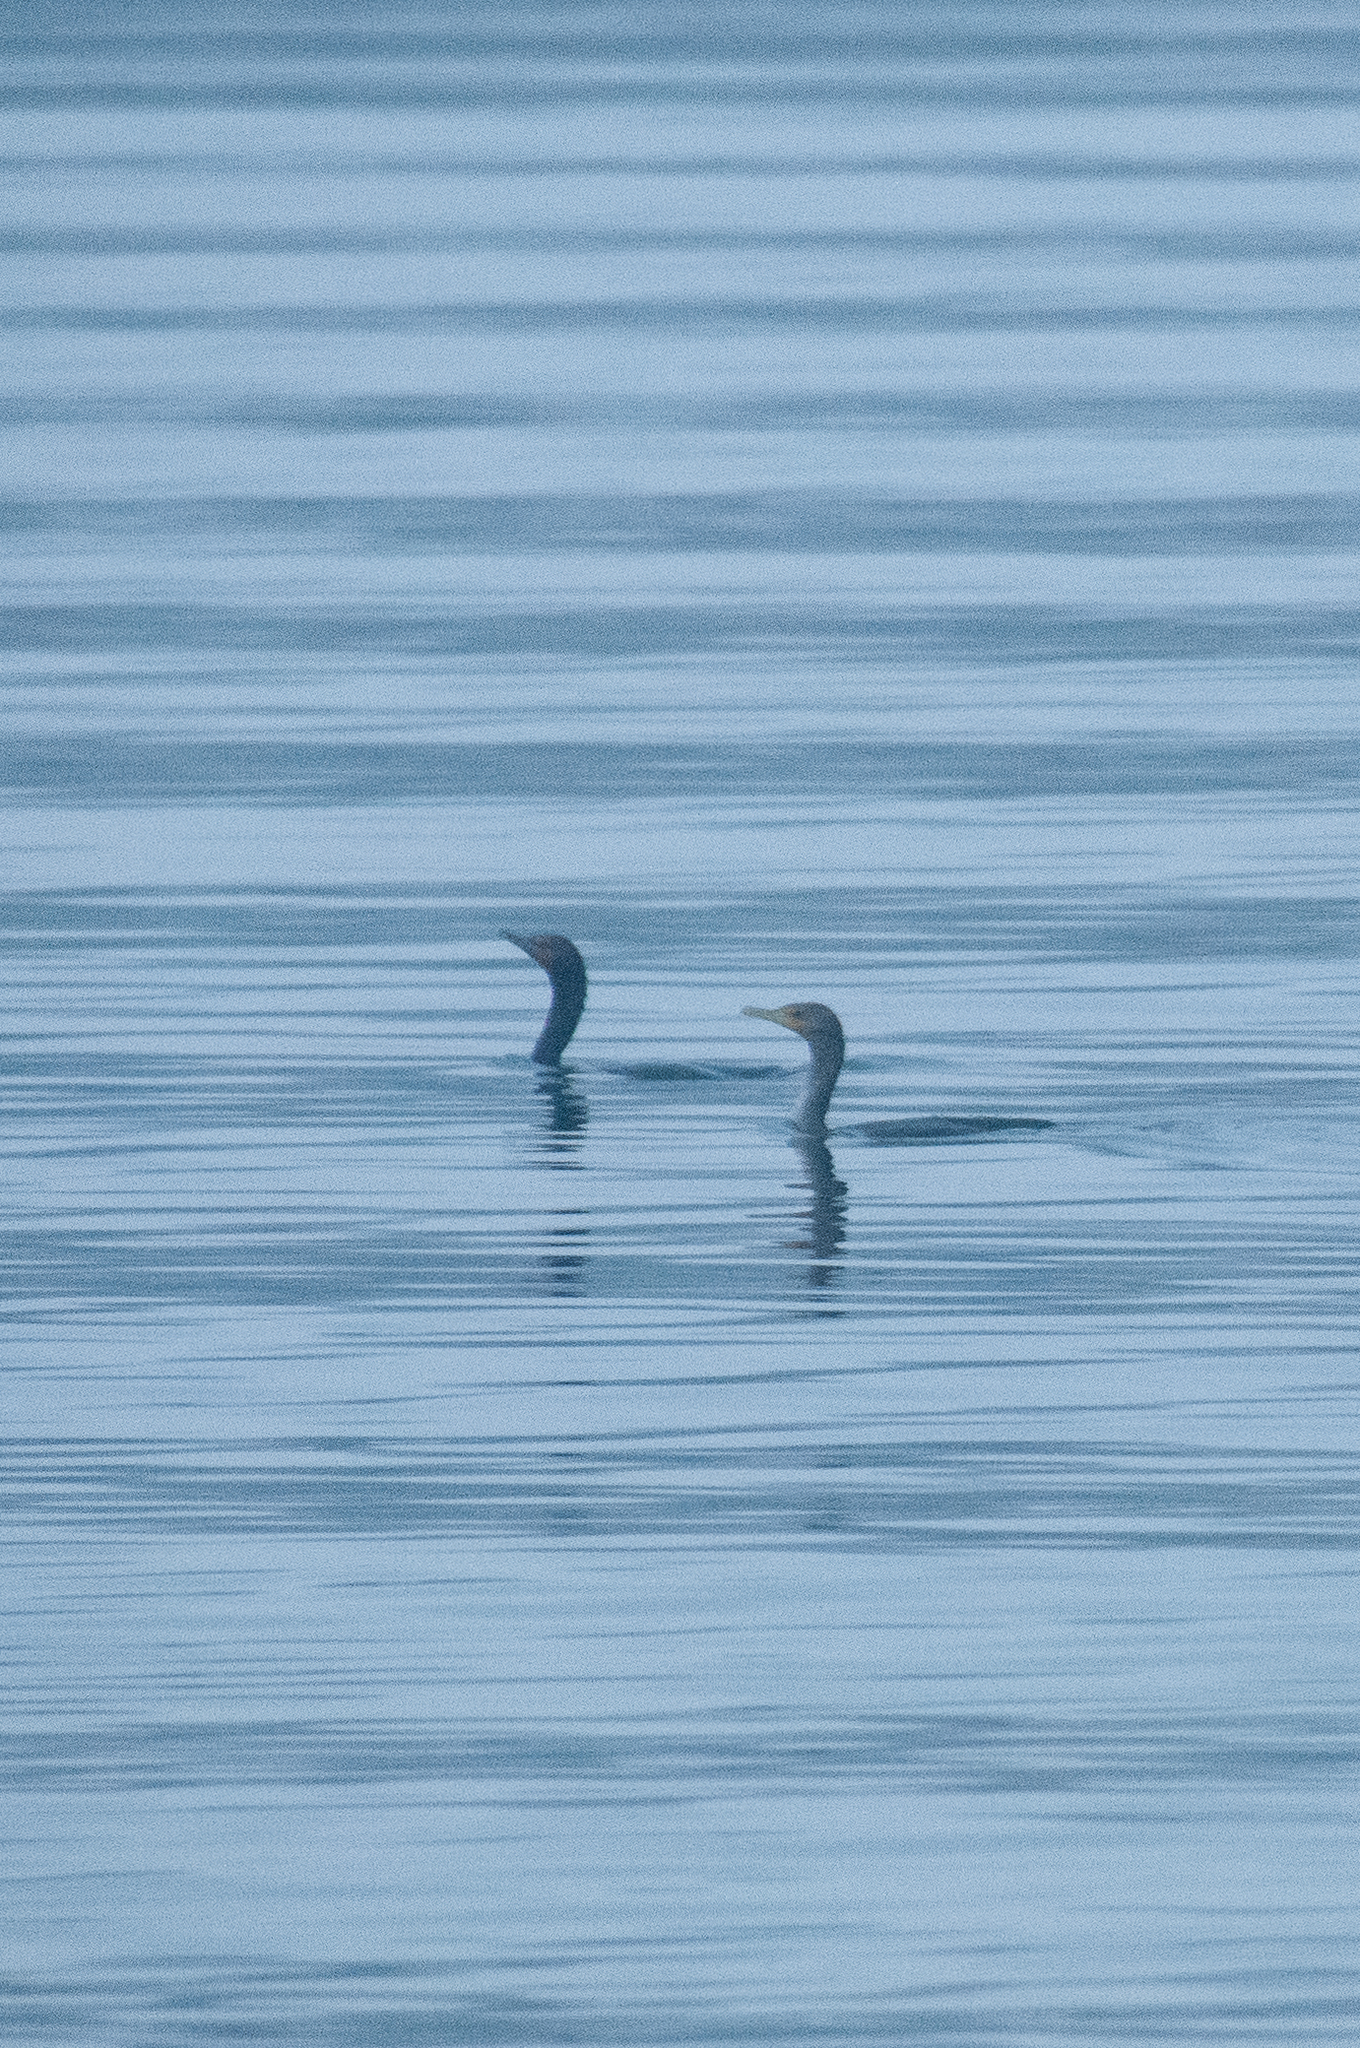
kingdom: Animalia
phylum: Chordata
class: Aves
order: Suliformes
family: Phalacrocoracidae
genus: Phalacrocorax
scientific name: Phalacrocorax auritus
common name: Double-crested cormorant
